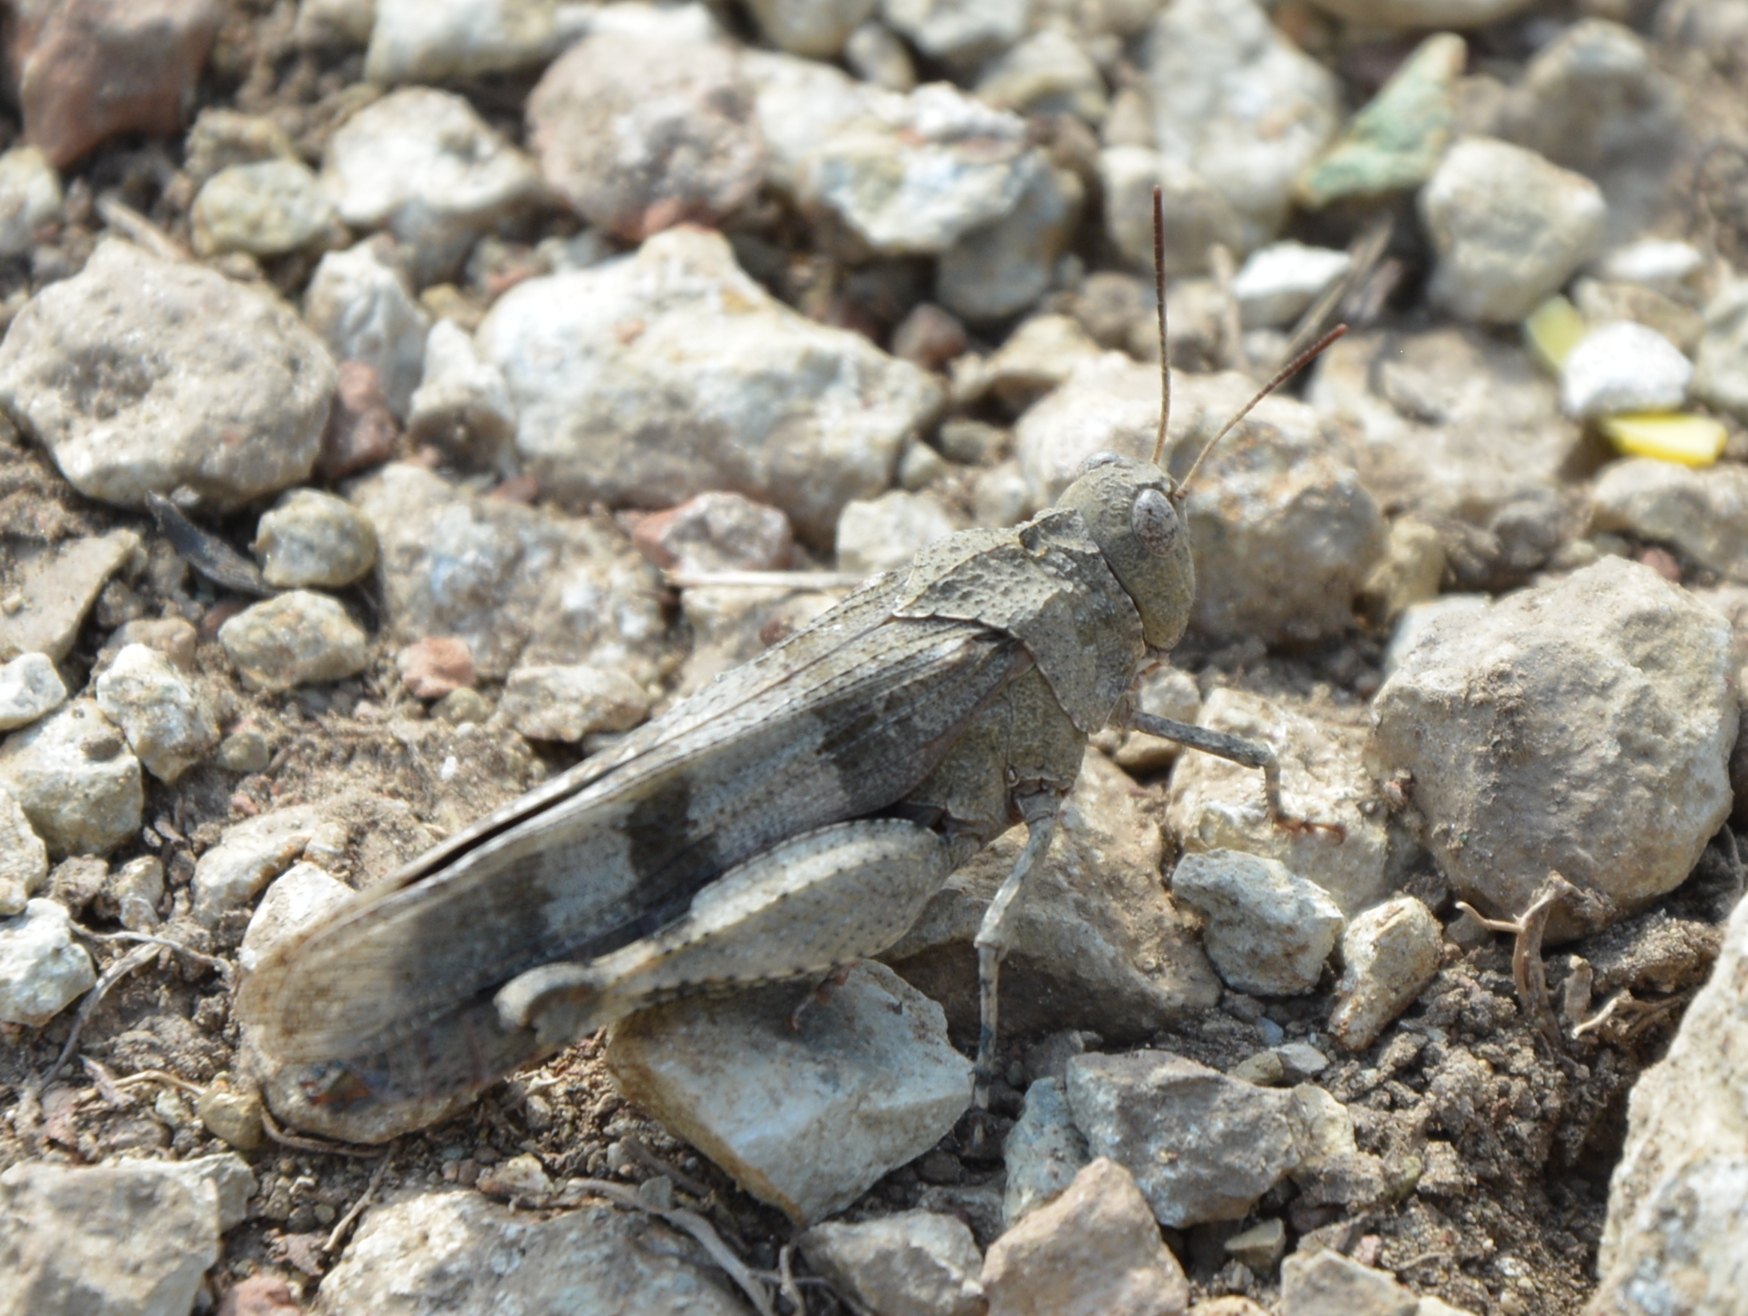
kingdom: Animalia
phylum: Arthropoda
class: Insecta
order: Orthoptera
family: Acrididae
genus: Oedipoda
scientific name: Oedipoda caerulescens
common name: Blue-winged grasshopper
